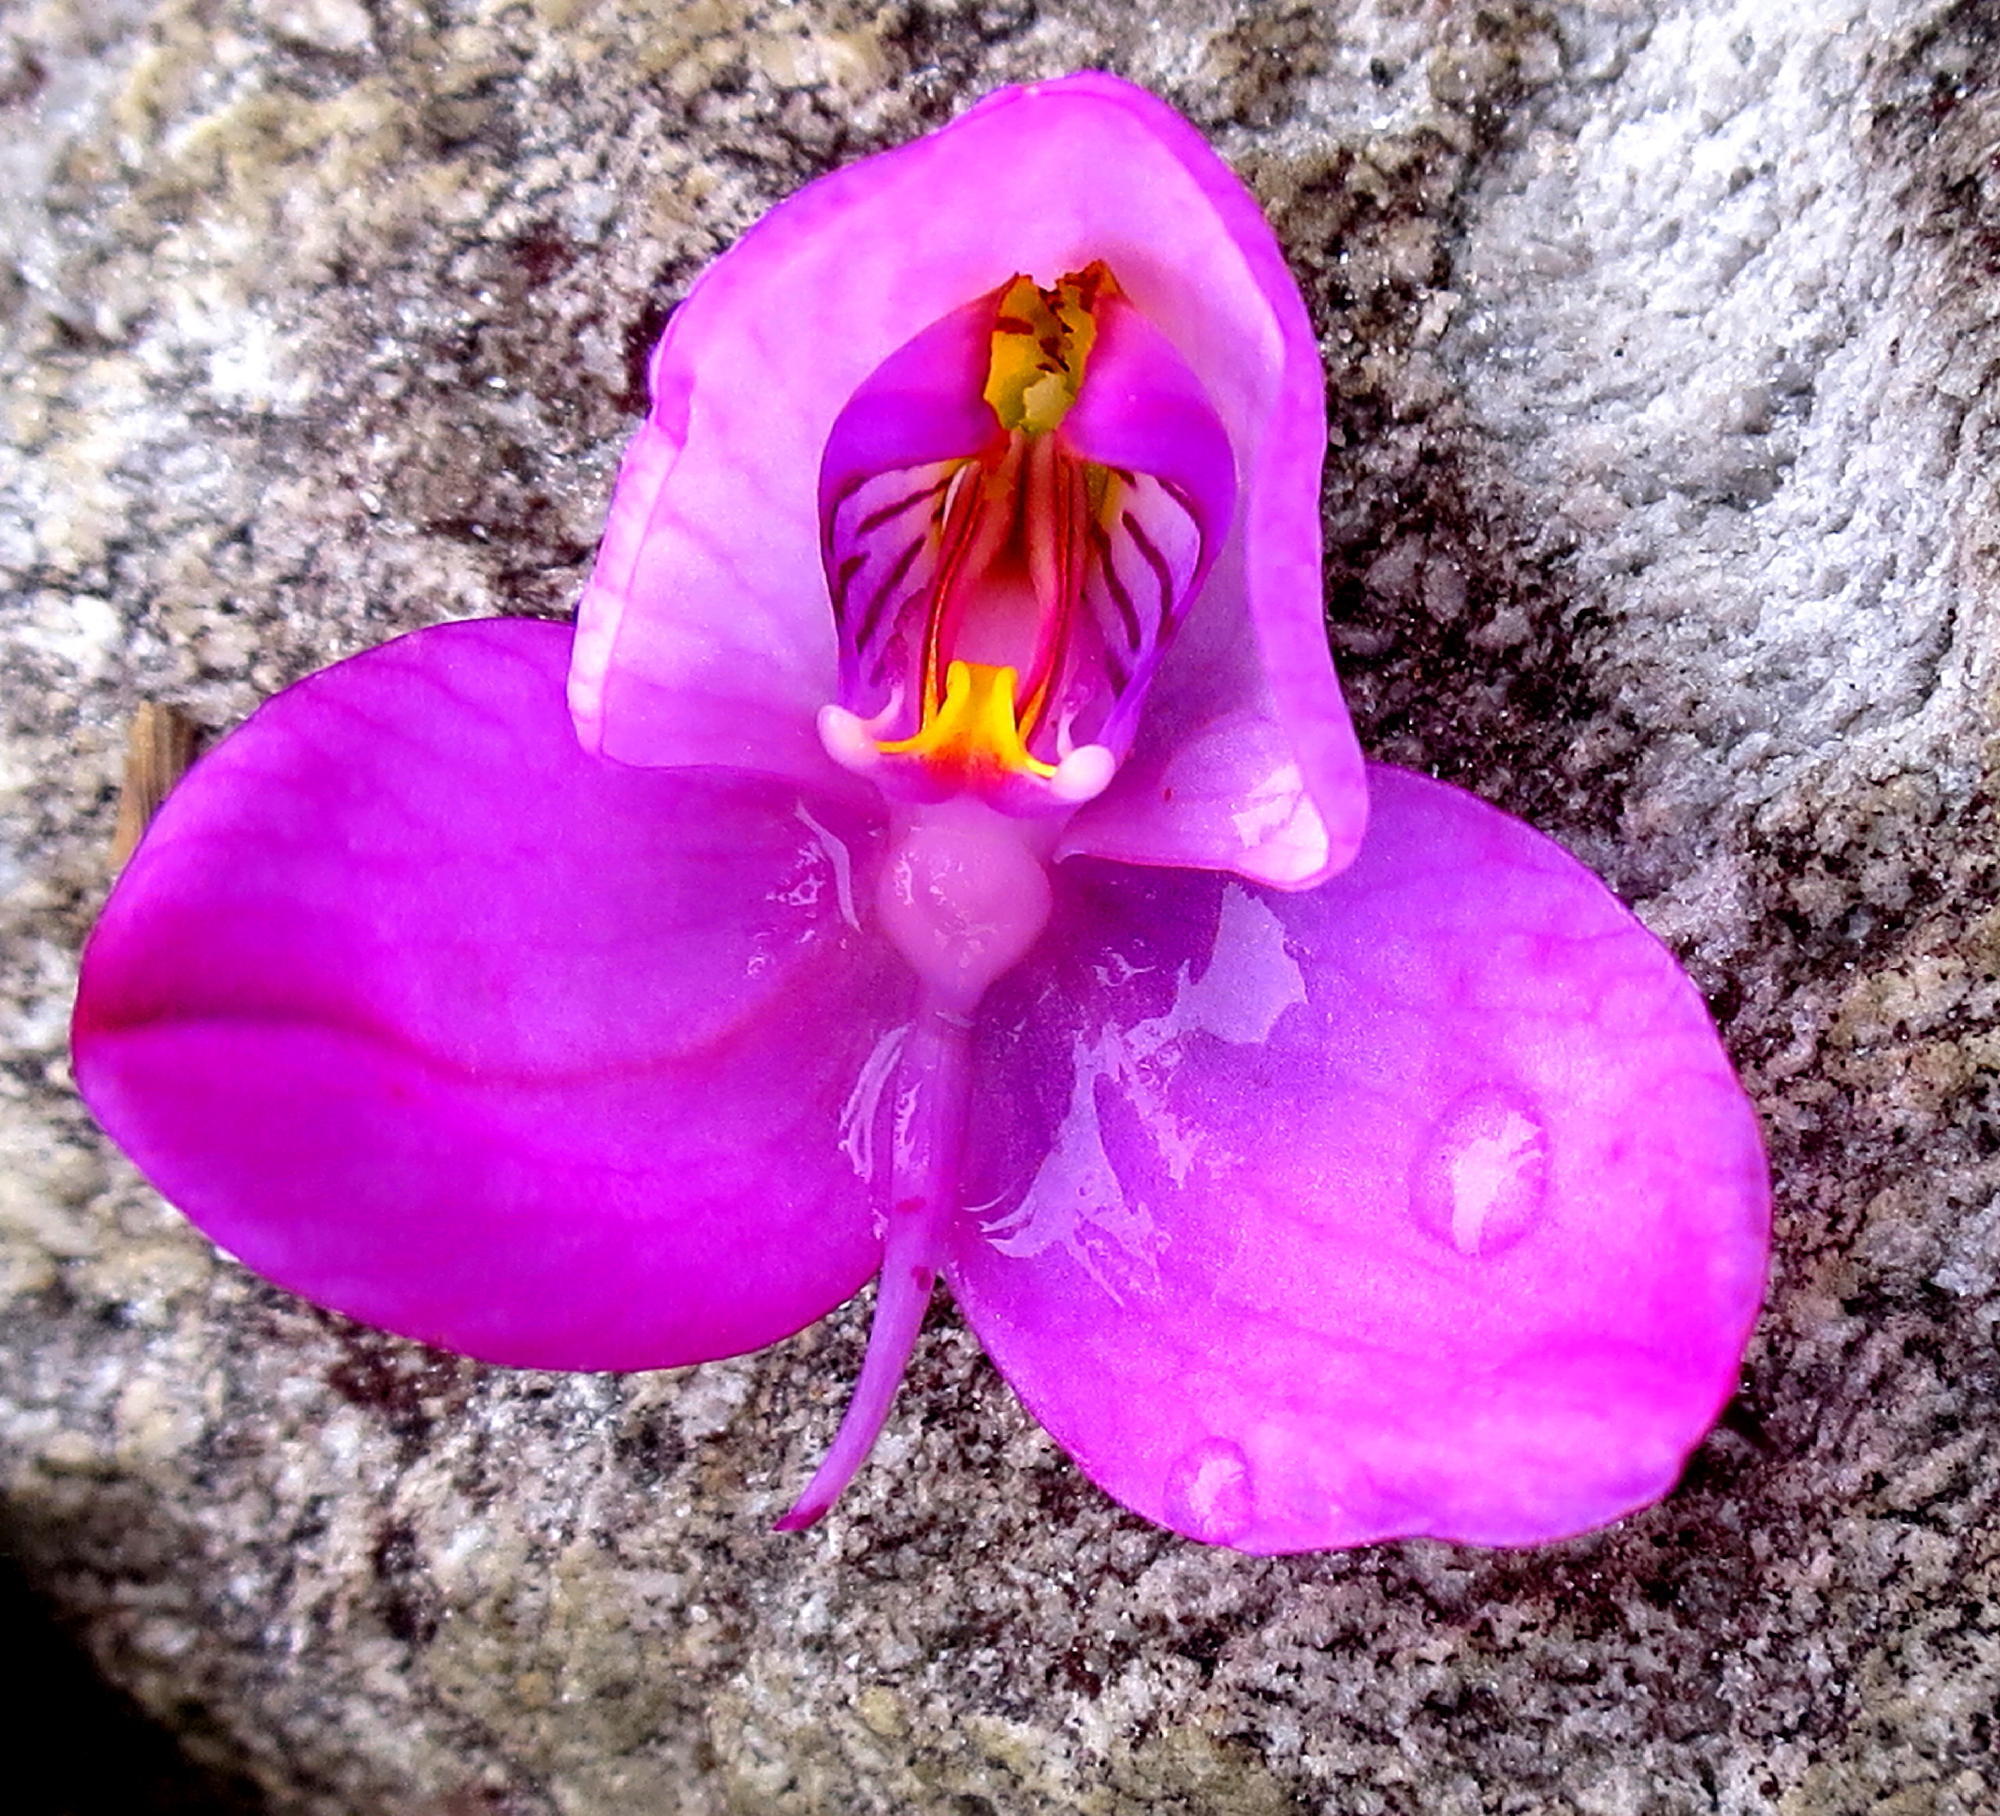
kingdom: Plantae
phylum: Tracheophyta
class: Liliopsida
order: Asparagales
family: Orchidaceae
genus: Disa
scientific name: Disa racemosa
